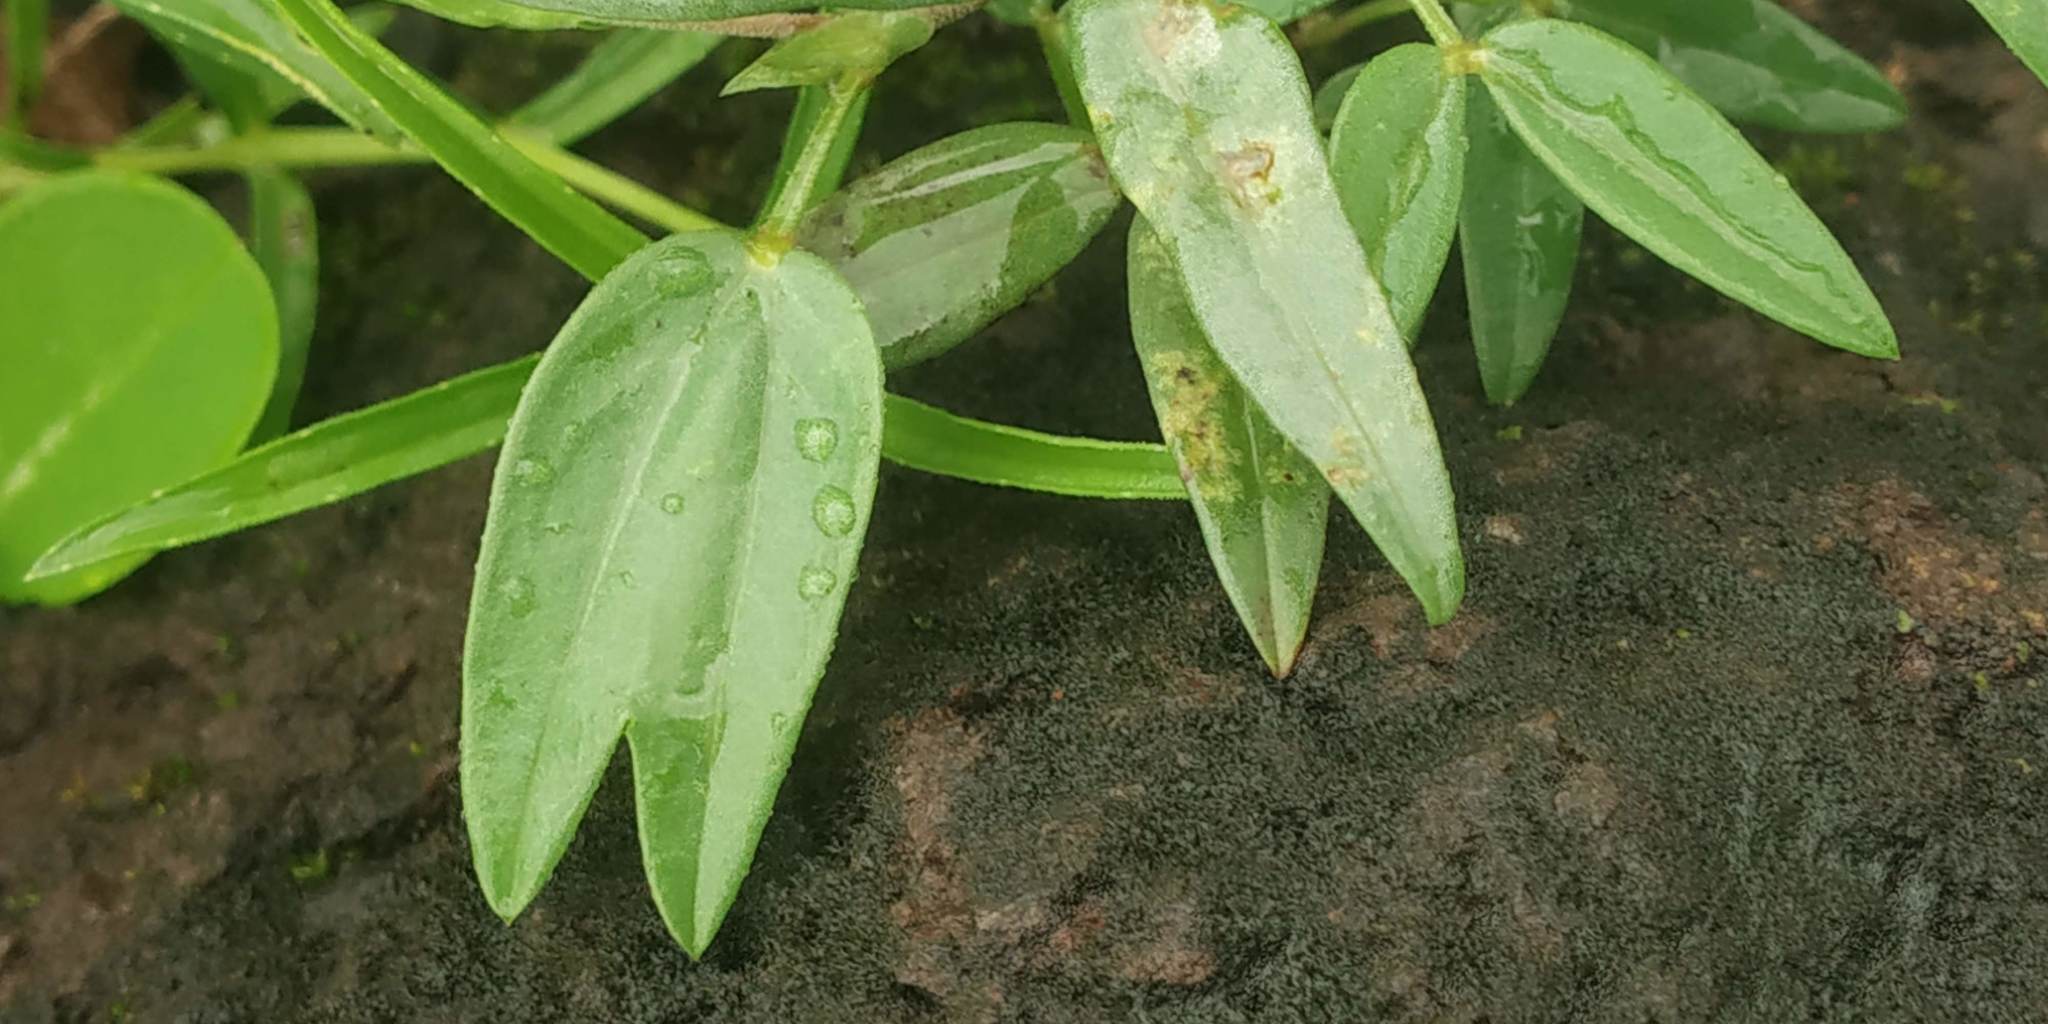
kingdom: Plantae
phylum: Tracheophyta
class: Magnoliopsida
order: Fabales
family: Fabaceae
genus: Zornia
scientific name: Zornia gibbosa
